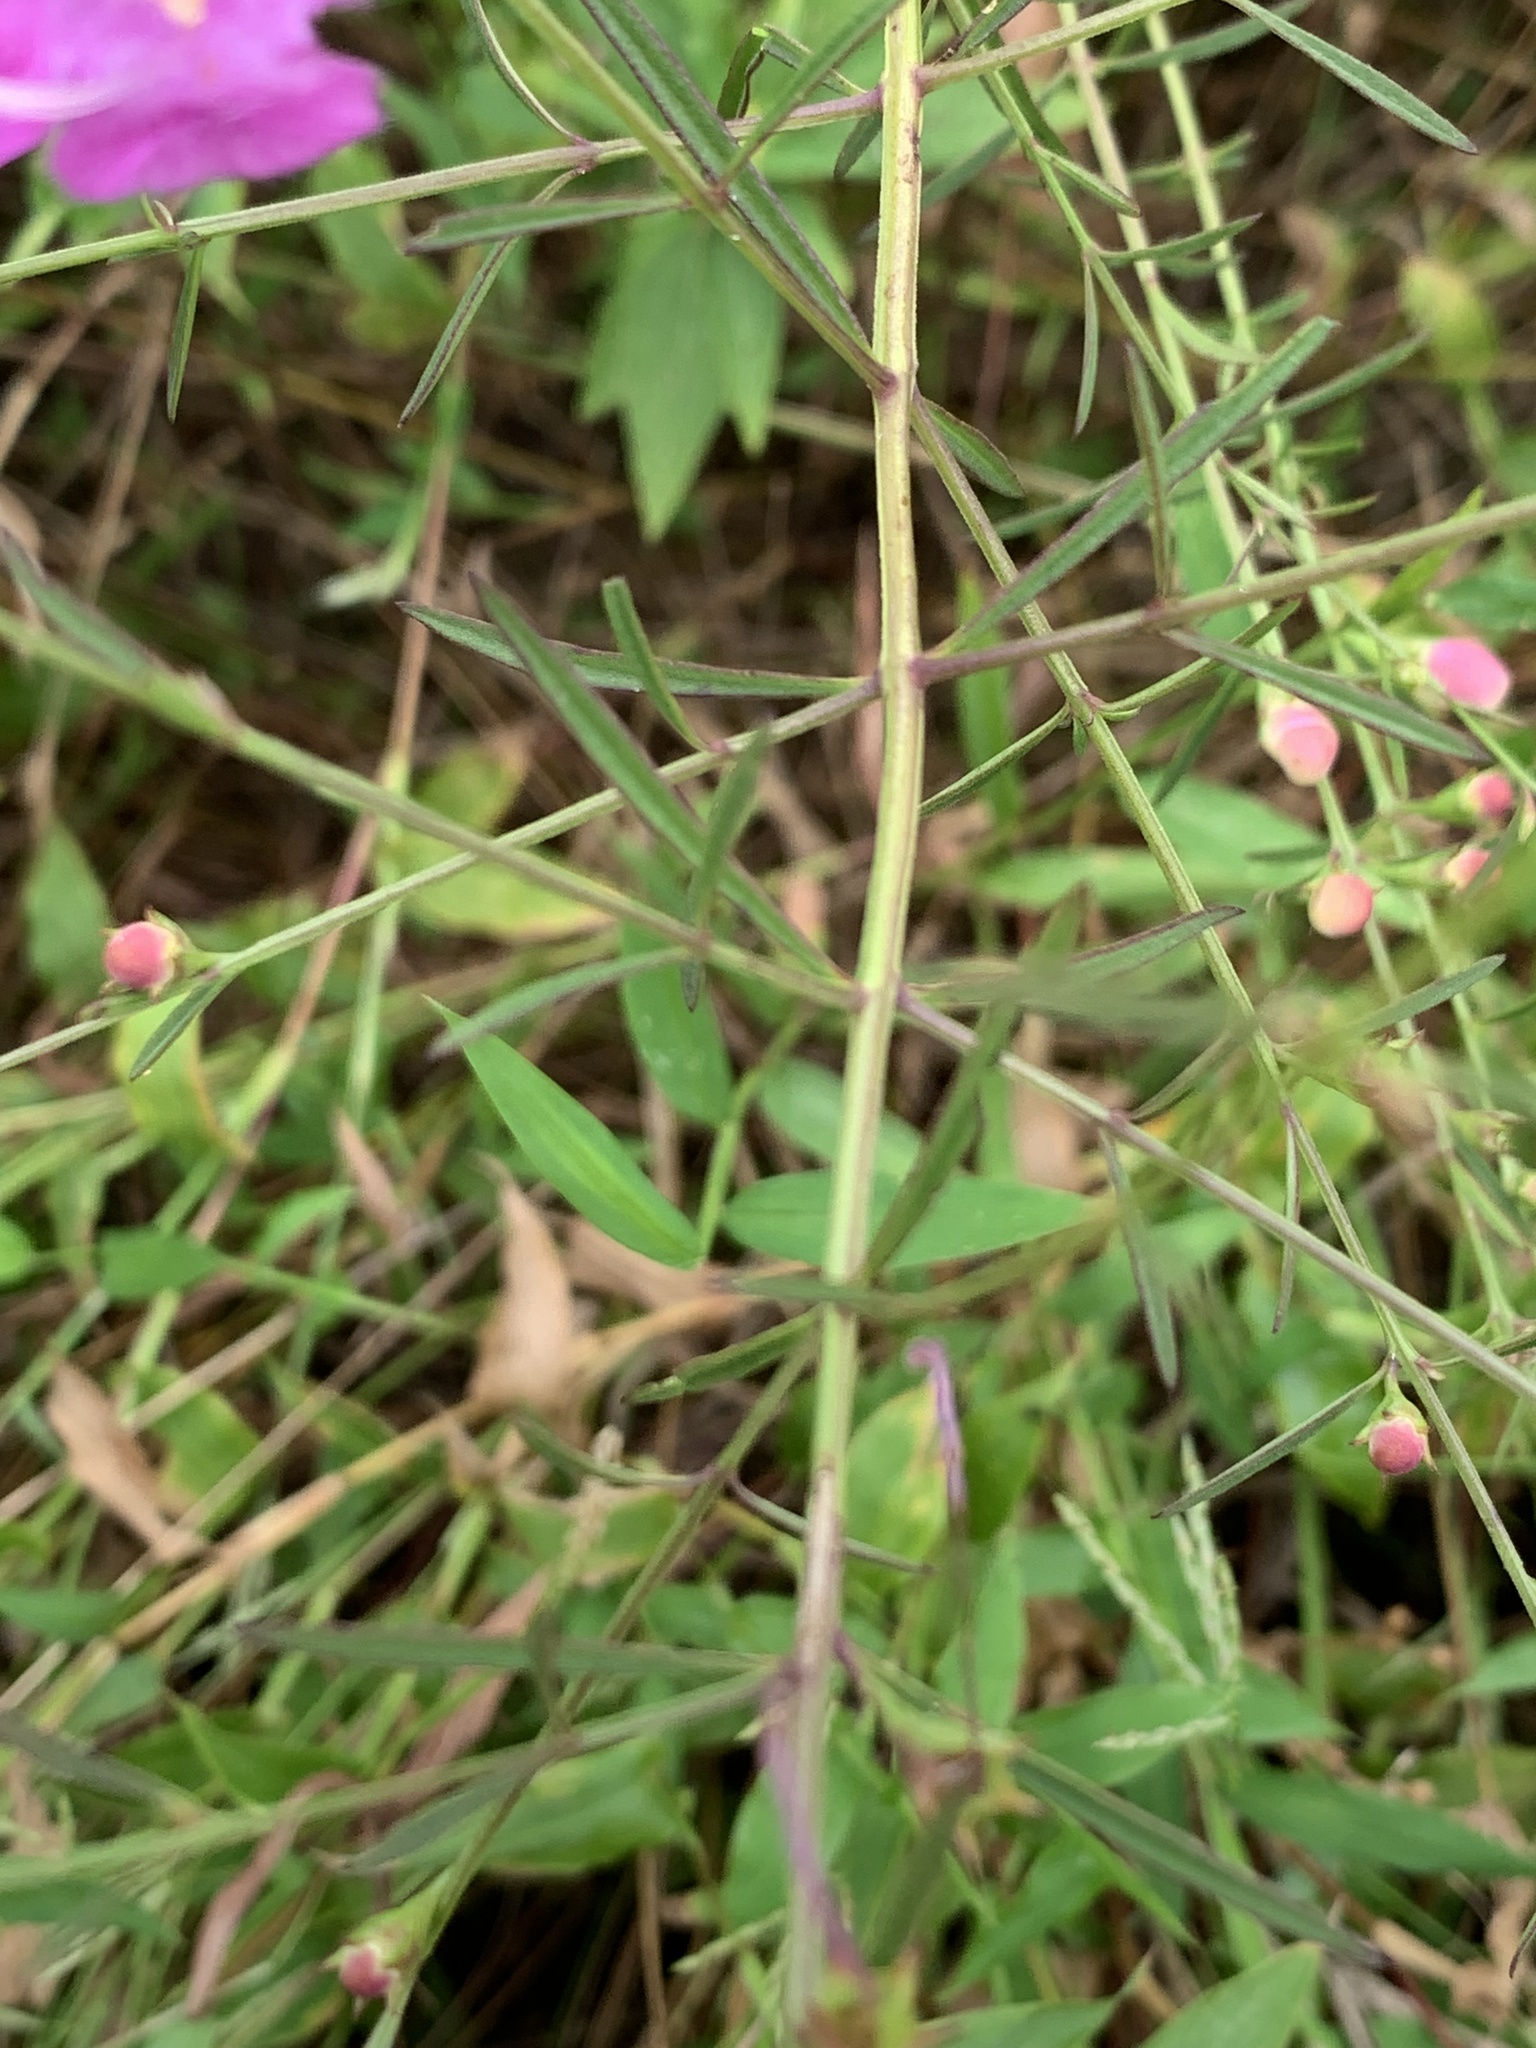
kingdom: Plantae
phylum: Tracheophyta
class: Magnoliopsida
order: Lamiales
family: Orobanchaceae
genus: Agalinis
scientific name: Agalinis purpurea
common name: Purple false foxglove
